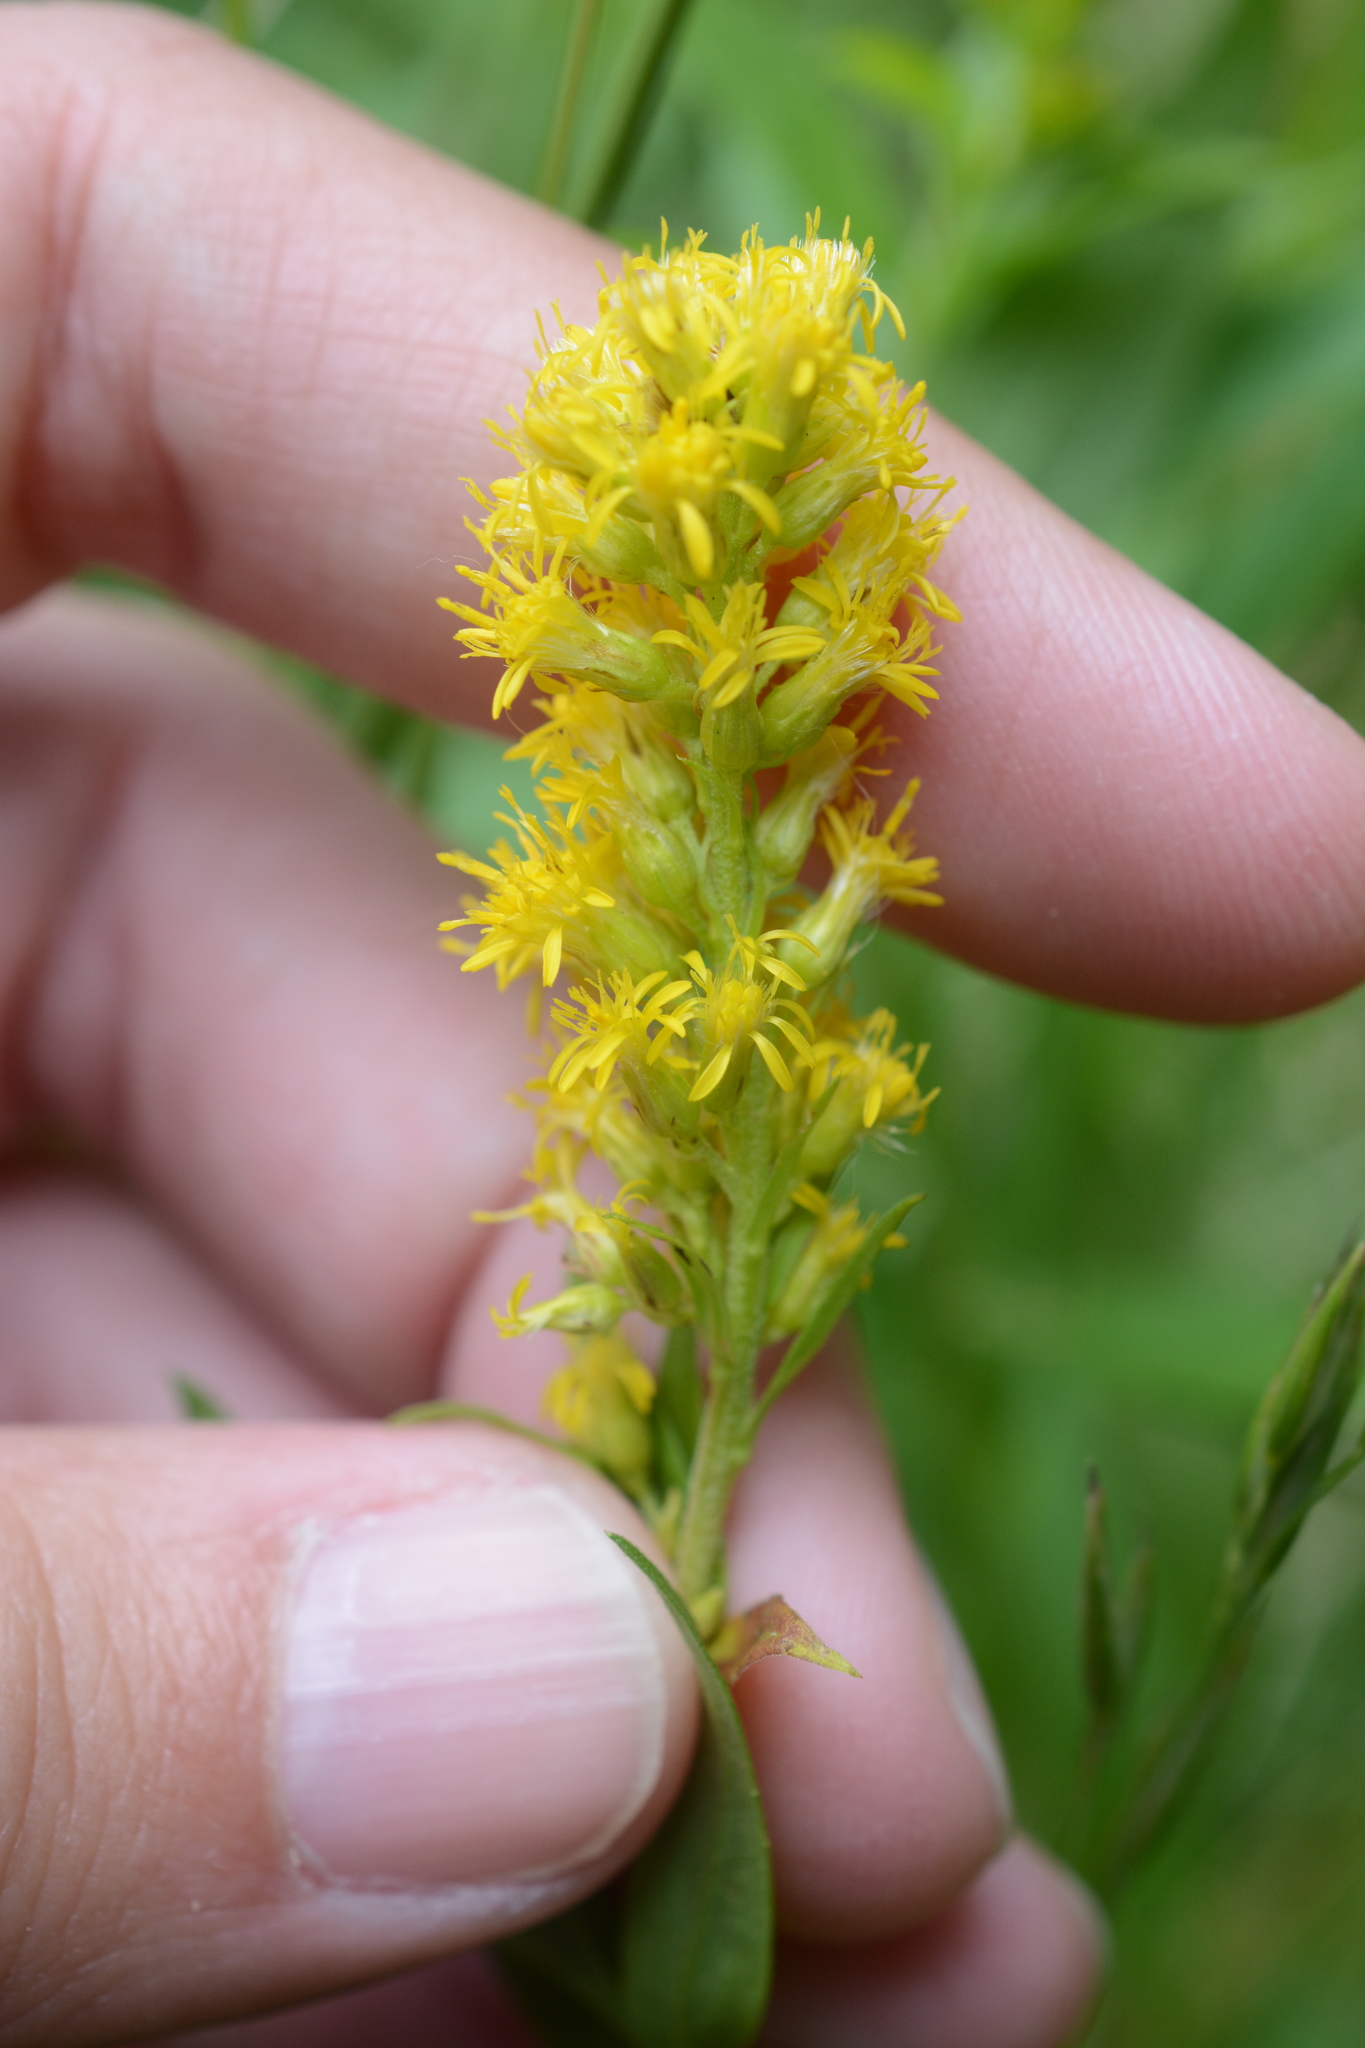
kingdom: Plantae
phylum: Tracheophyta
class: Magnoliopsida
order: Asterales
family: Asteraceae
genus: Solidago
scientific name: Solidago elongata
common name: Cascade canada goldenrod
